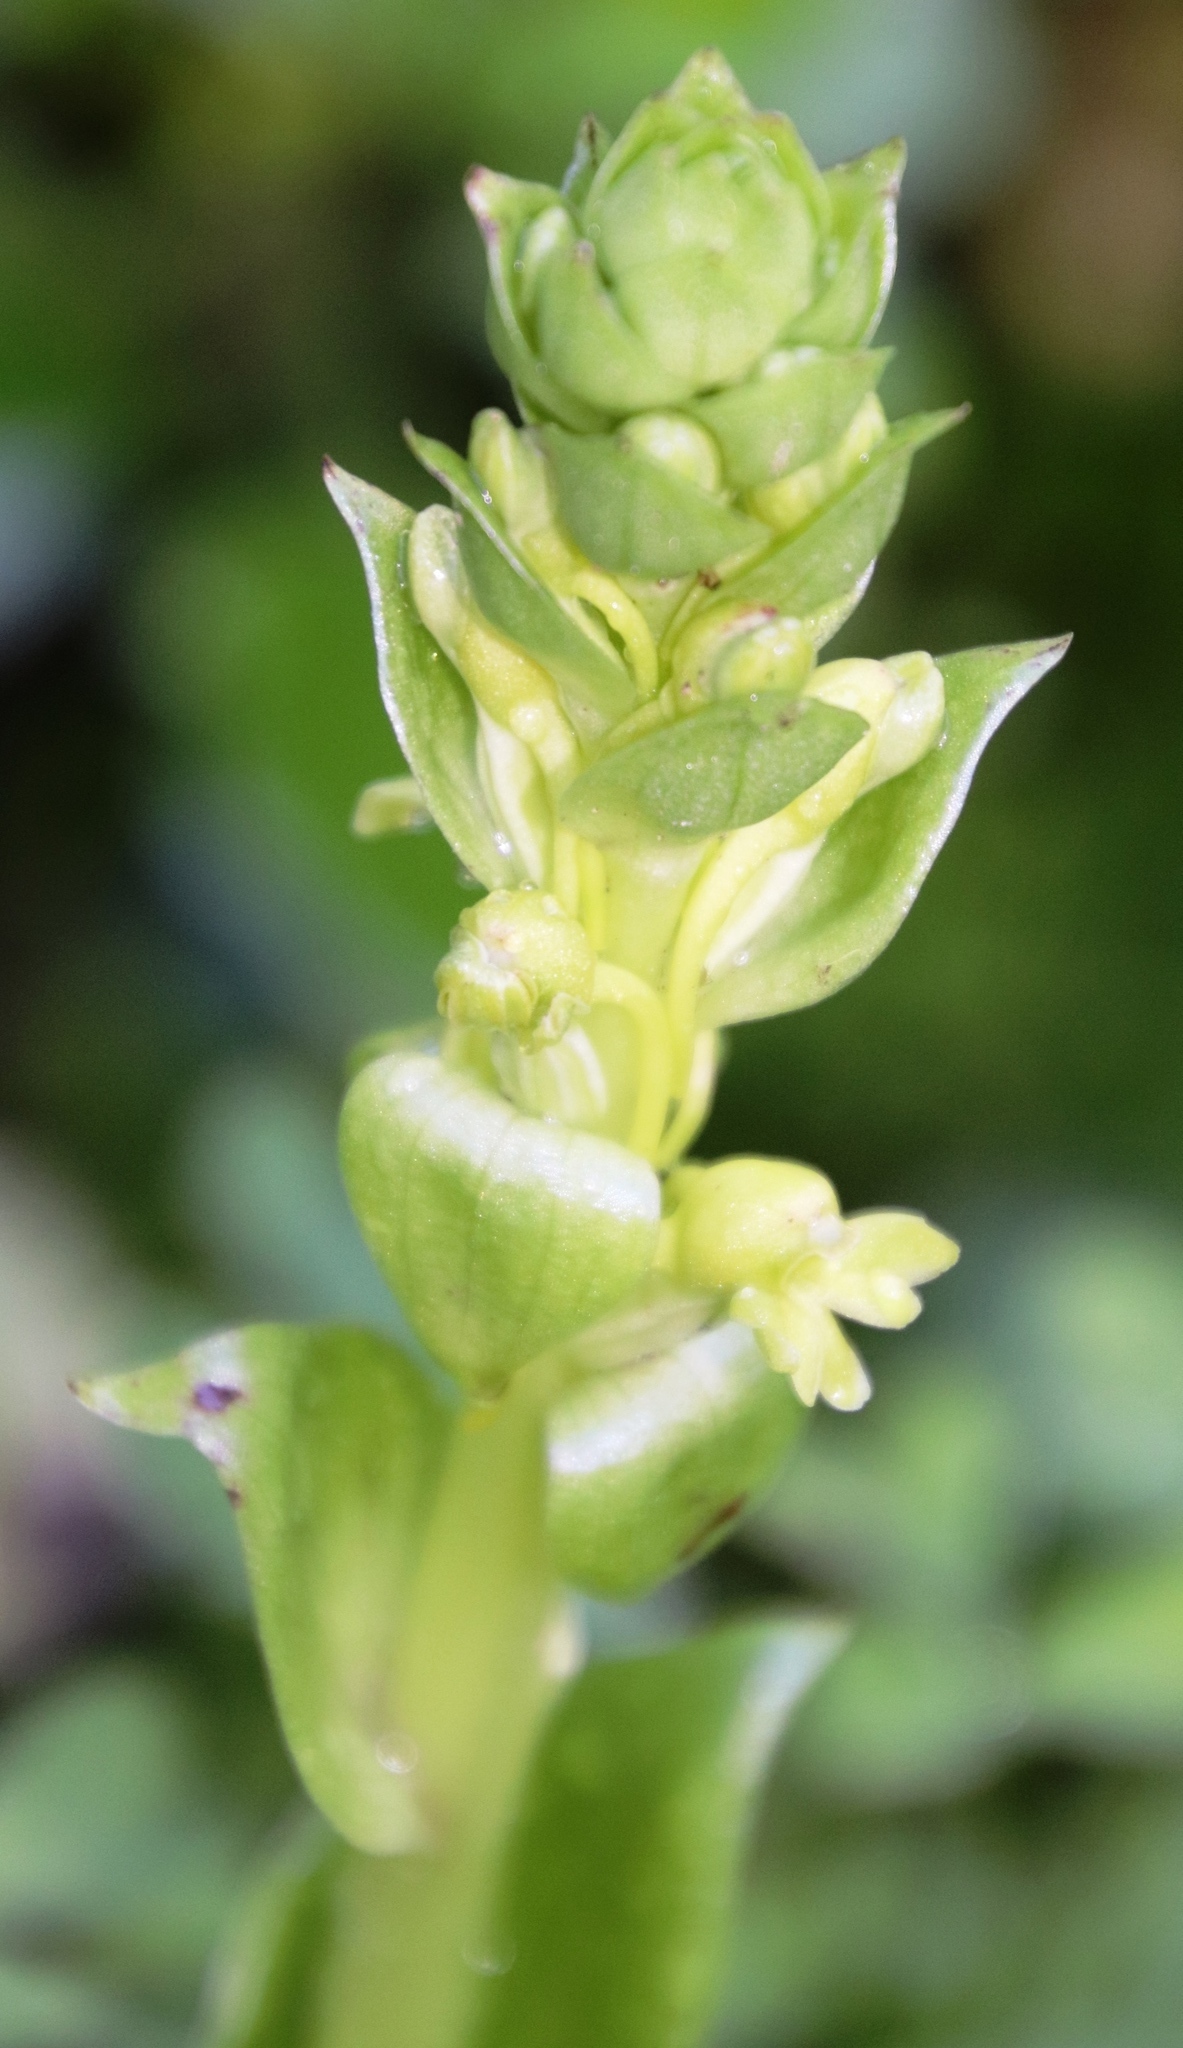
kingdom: Plantae
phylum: Tracheophyta
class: Liliopsida
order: Asparagales
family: Orchidaceae
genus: Satyrium
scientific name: Satyrium odorum
